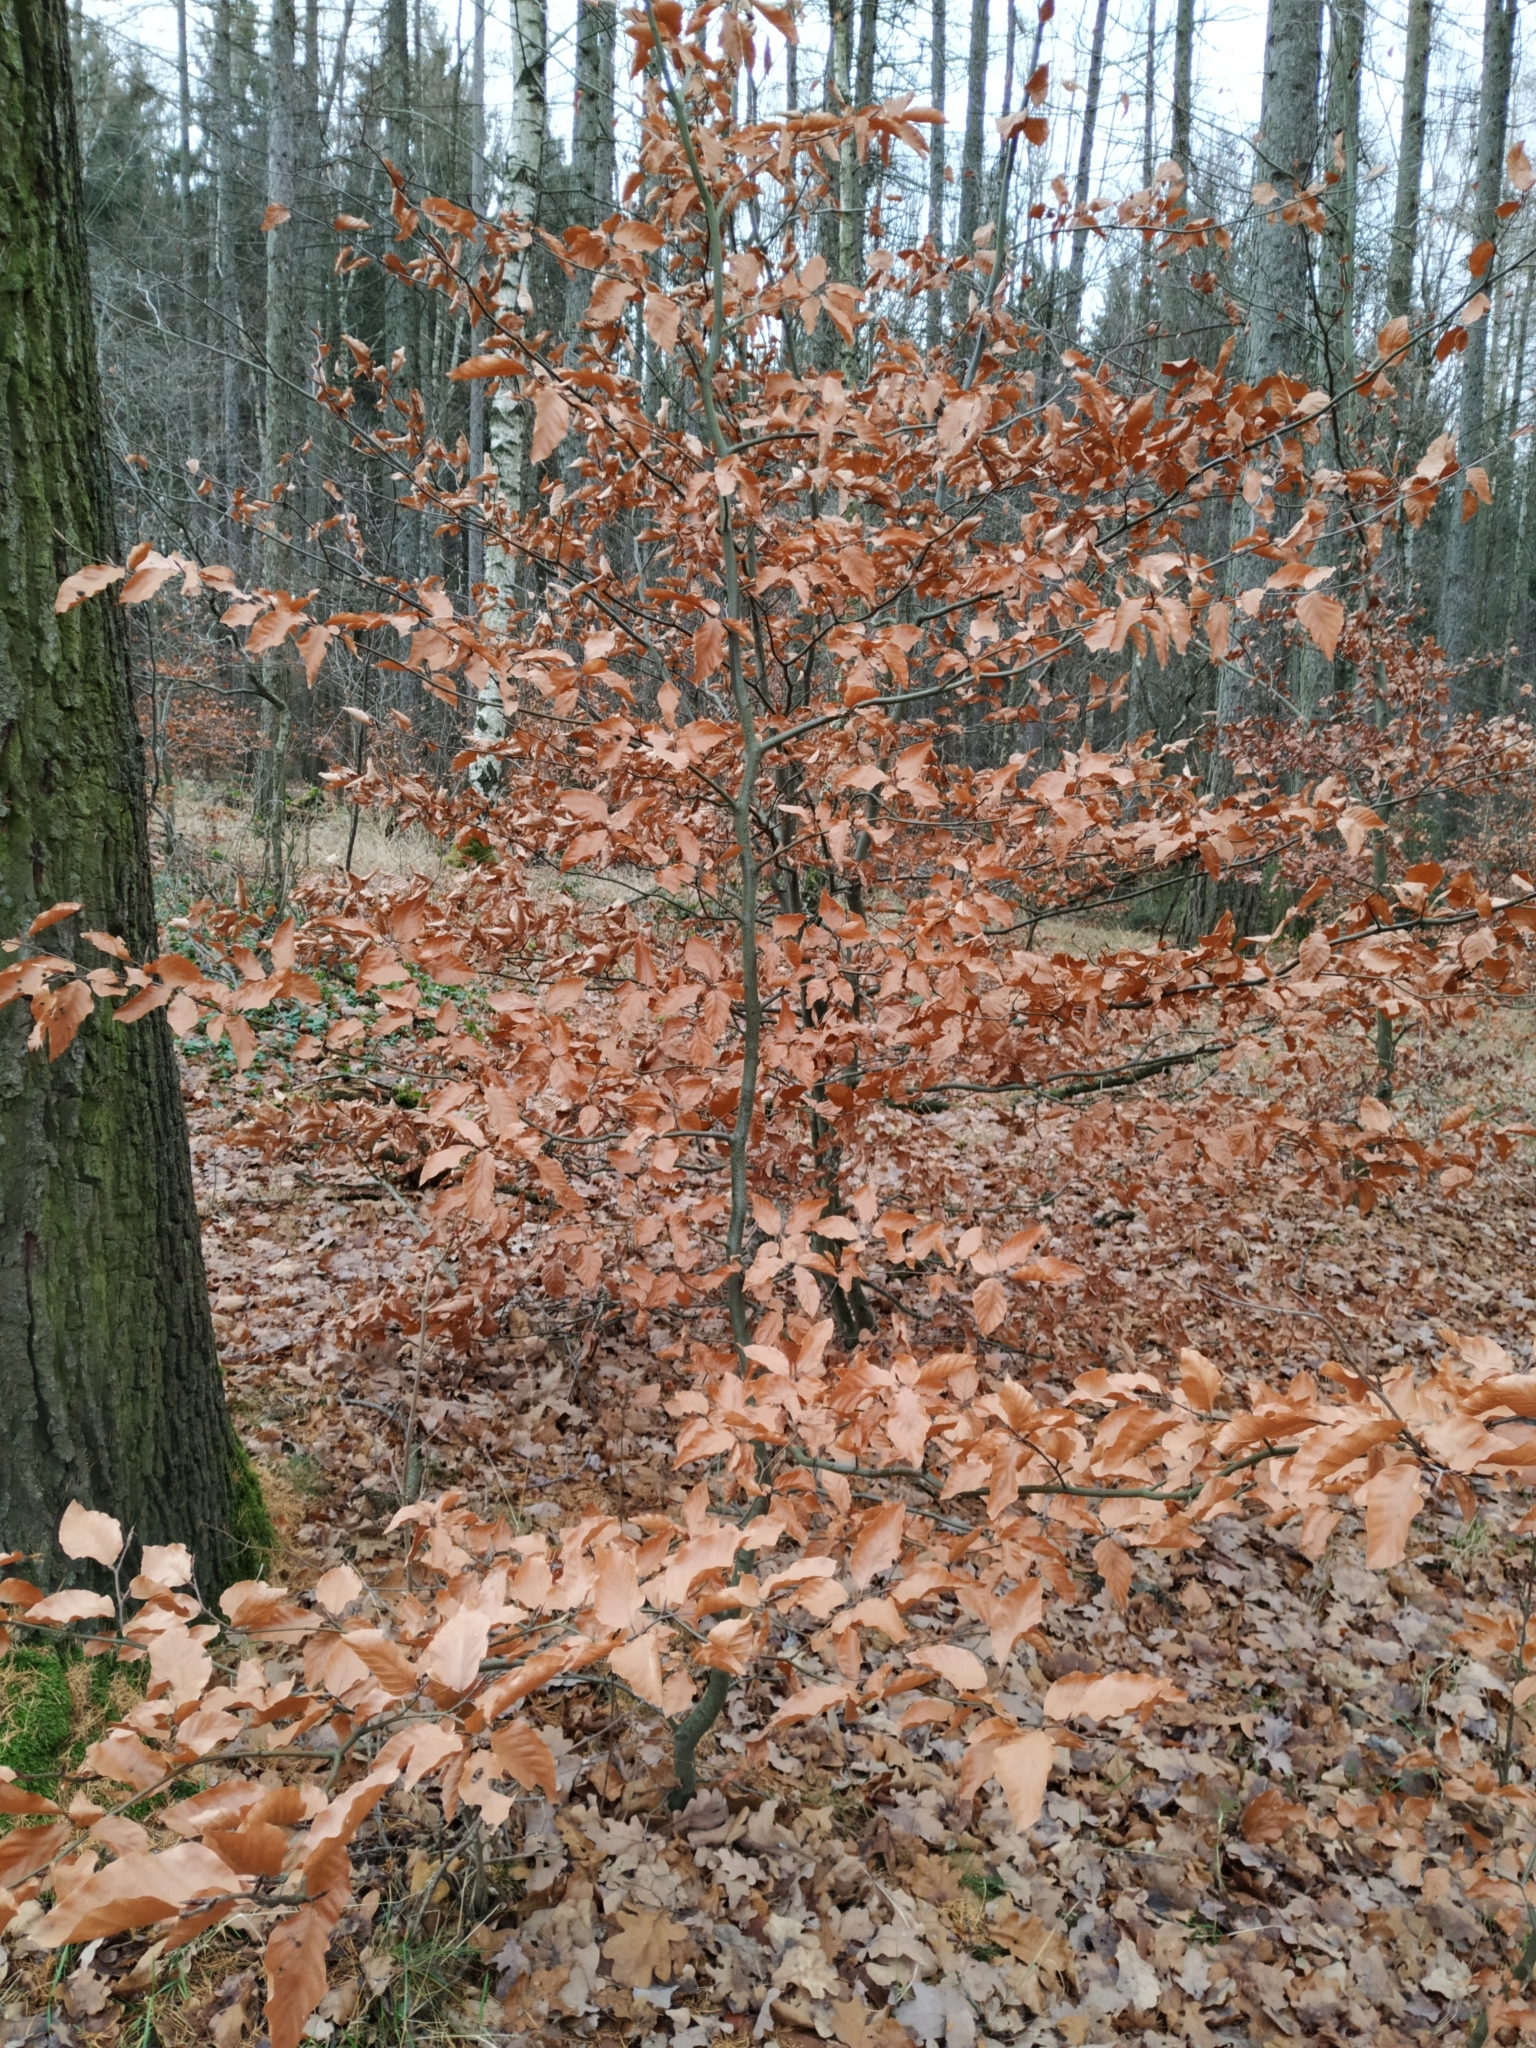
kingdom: Plantae
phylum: Tracheophyta
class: Magnoliopsida
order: Fagales
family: Fagaceae
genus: Fagus
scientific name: Fagus sylvatica
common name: Beech
